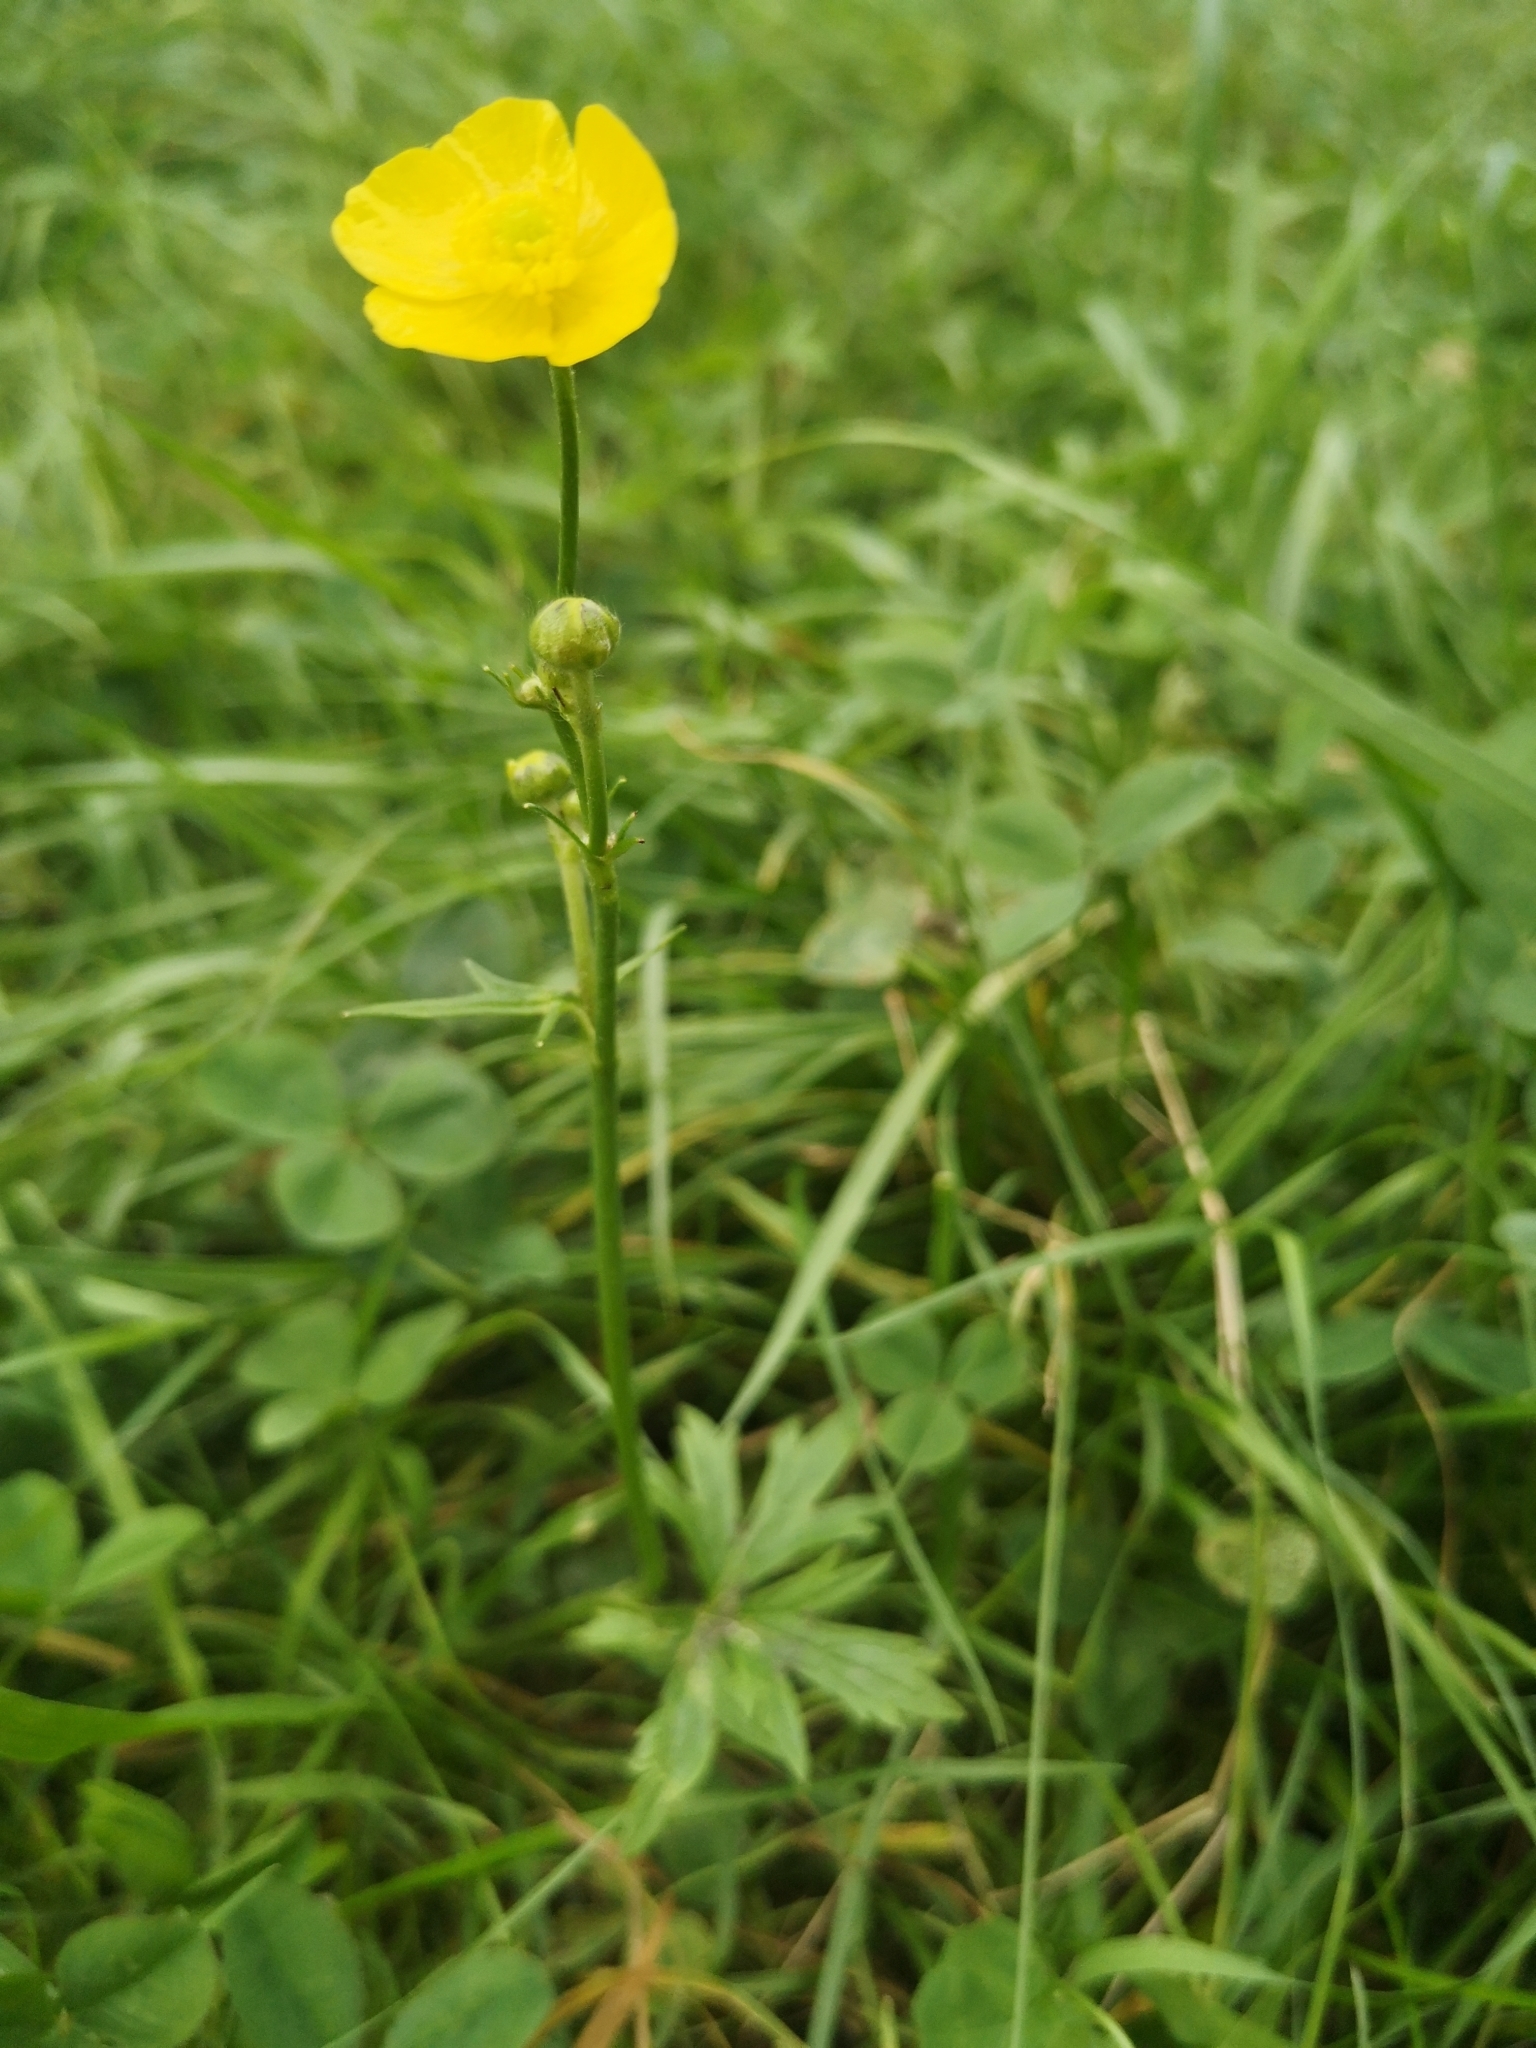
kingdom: Plantae
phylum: Tracheophyta
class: Magnoliopsida
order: Ranunculales
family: Ranunculaceae
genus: Ranunculus
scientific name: Ranunculus acris
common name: Meadow buttercup
